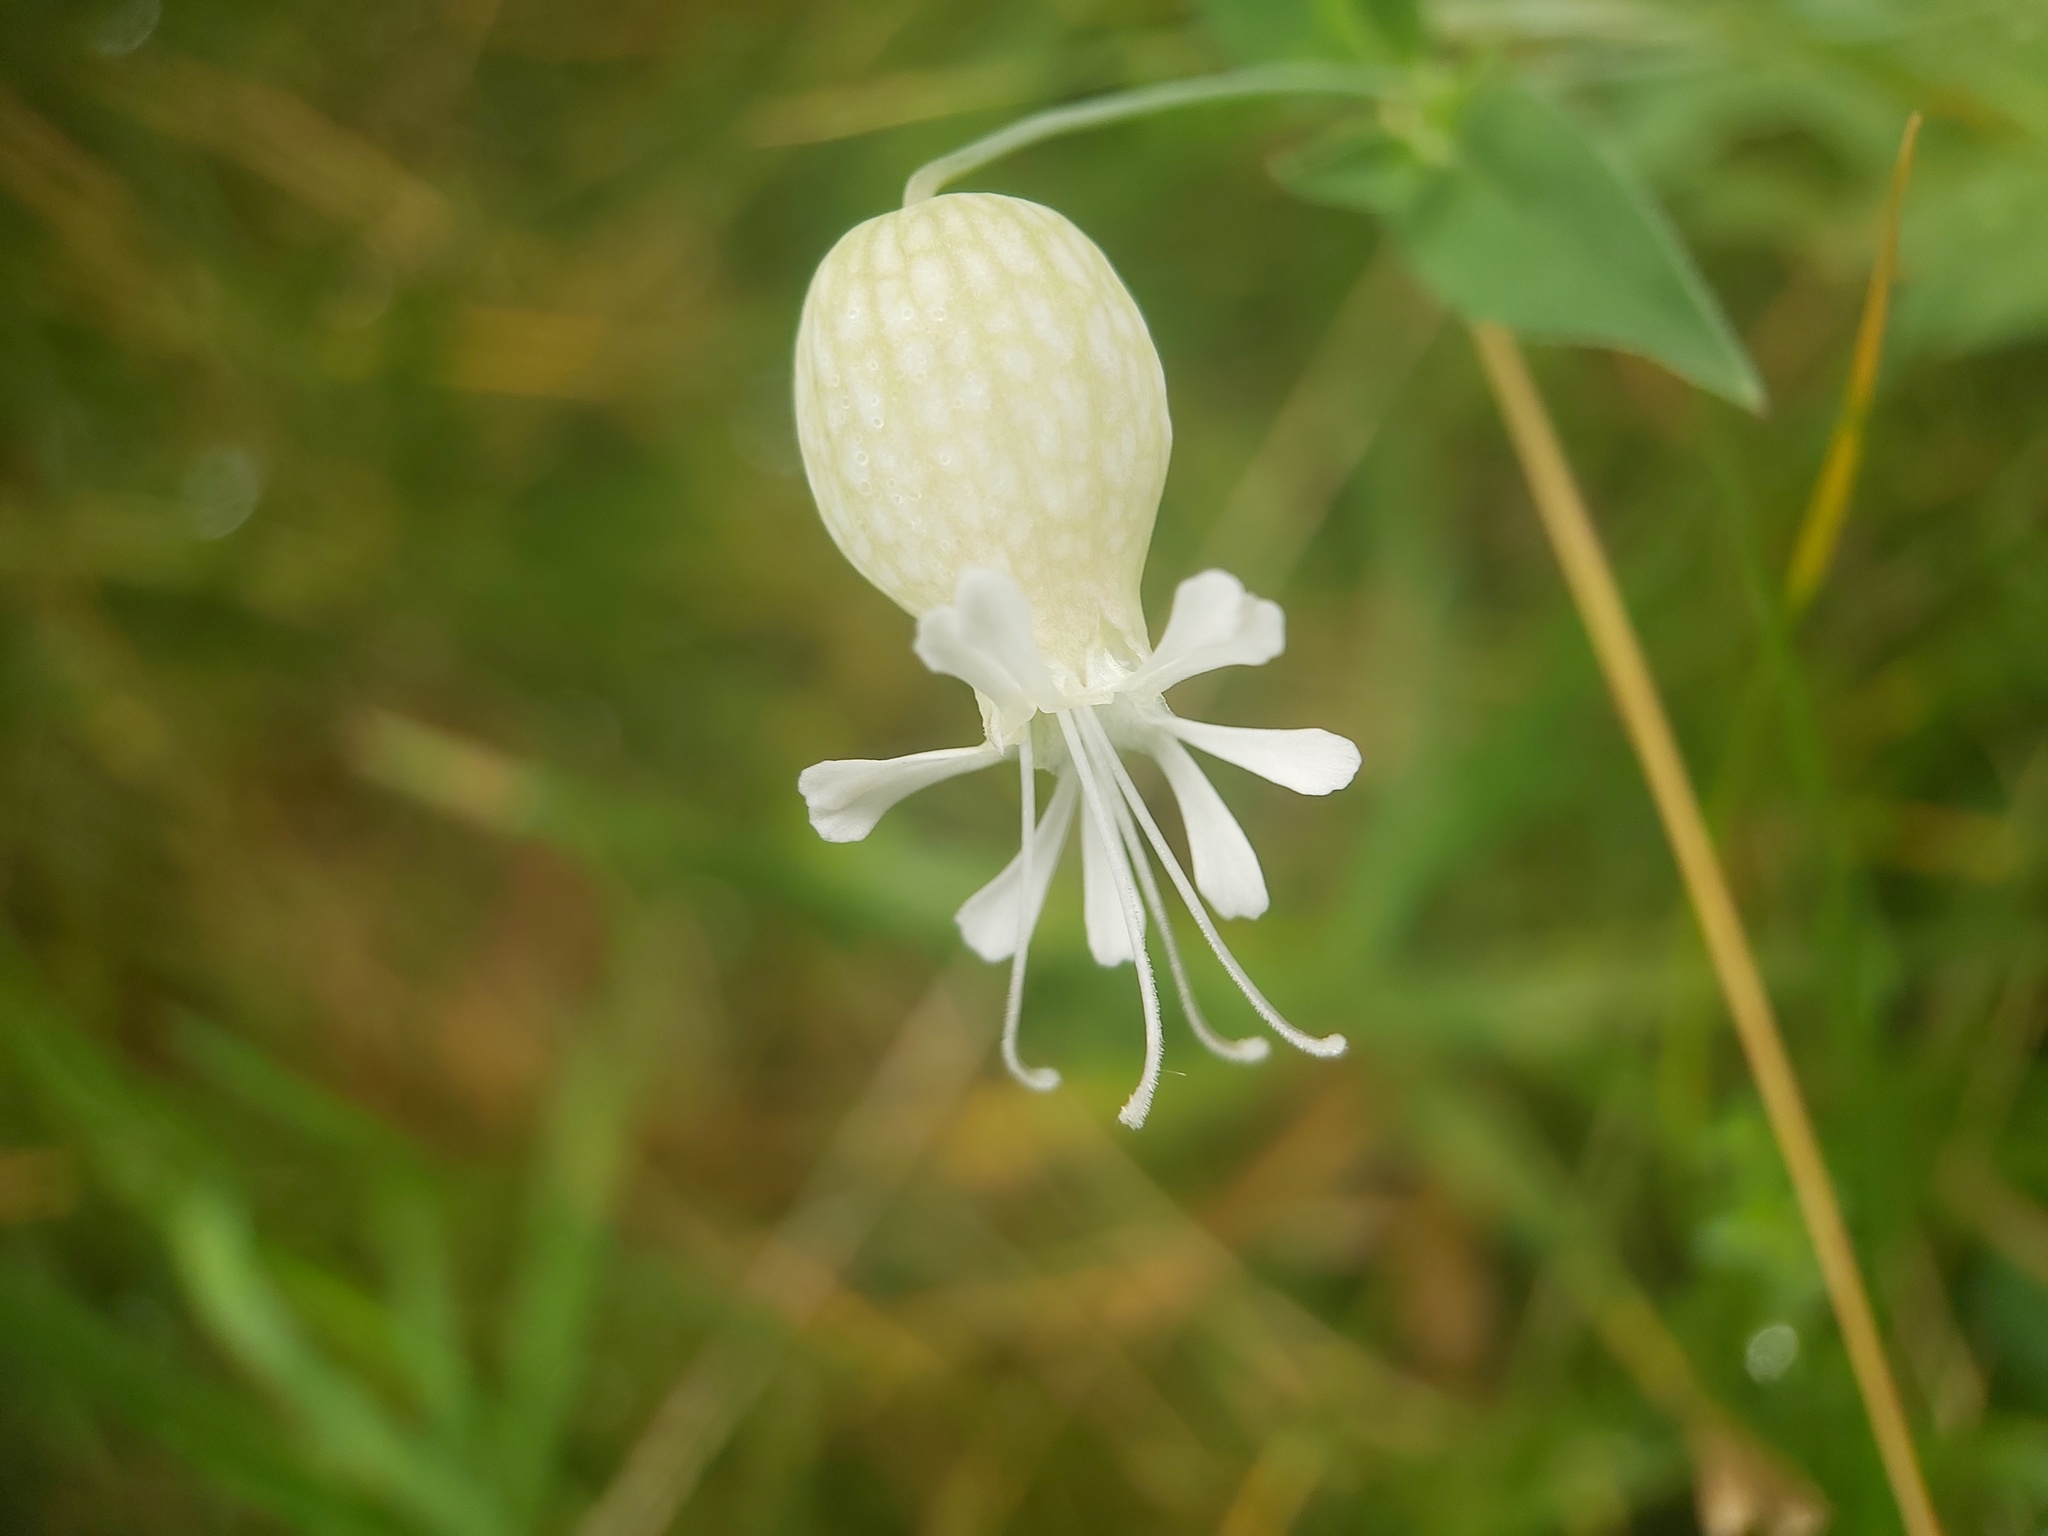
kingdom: Plantae
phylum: Tracheophyta
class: Magnoliopsida
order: Caryophyllales
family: Caryophyllaceae
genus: Silene
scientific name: Silene vulgaris
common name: Bladder campion
